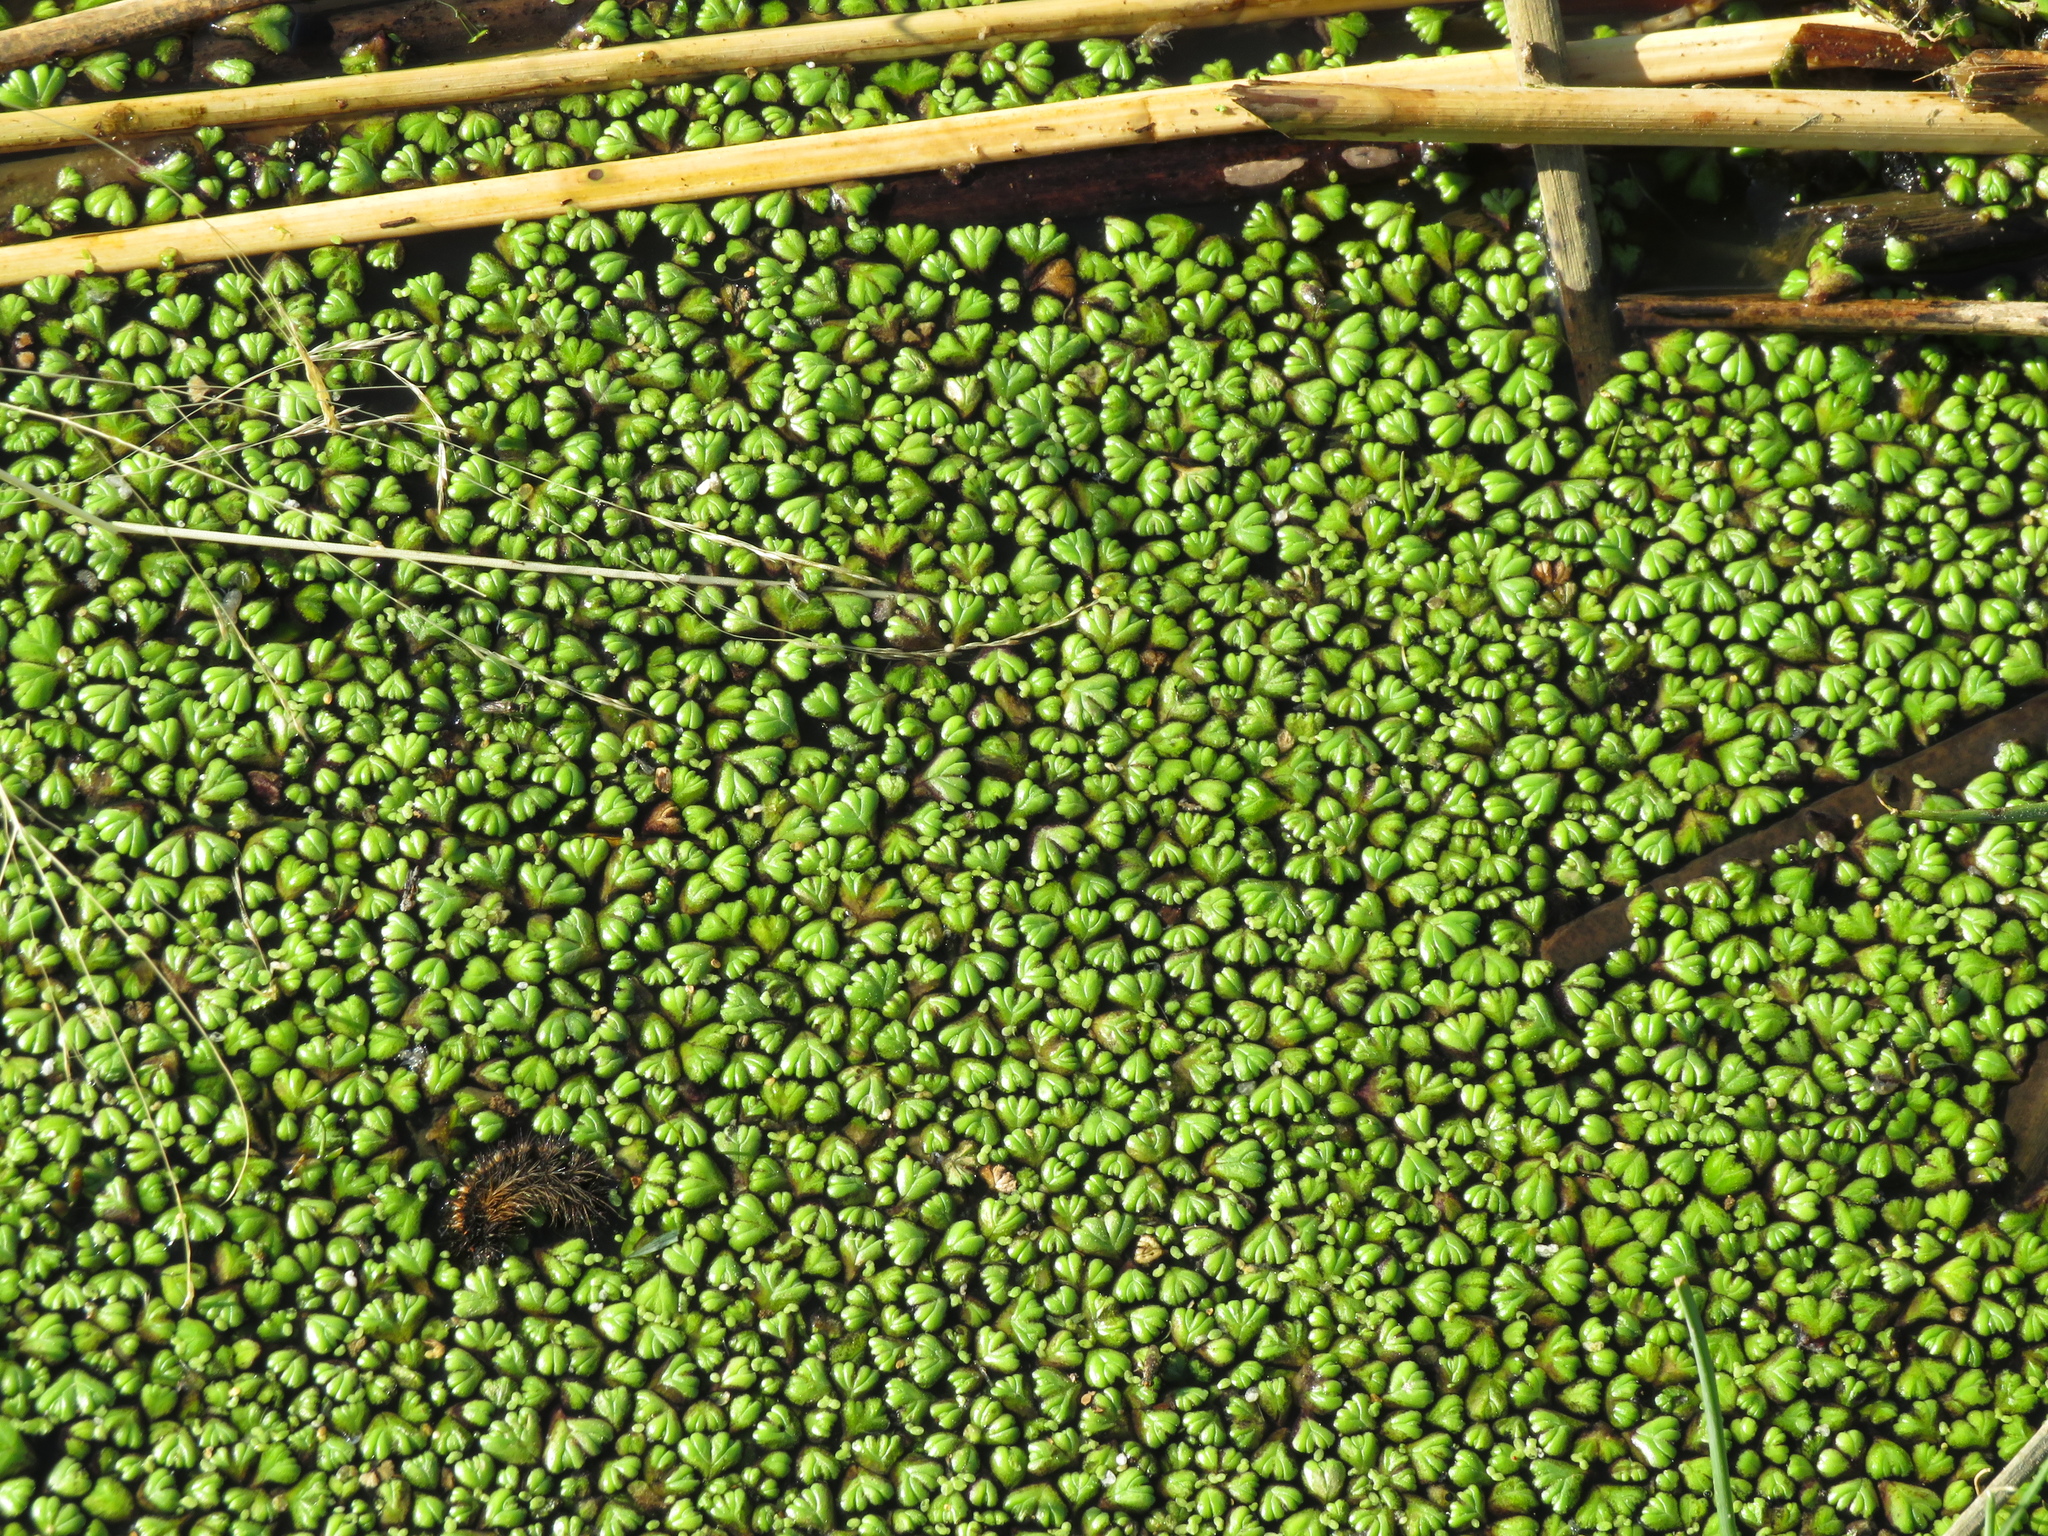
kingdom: Plantae
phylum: Marchantiophyta
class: Marchantiopsida
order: Marchantiales
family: Ricciaceae
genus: Ricciocarpos
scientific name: Ricciocarpos natans
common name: Purple-fringed liverwort
